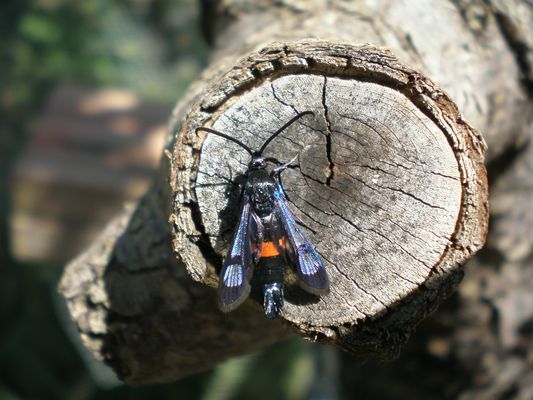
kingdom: Animalia
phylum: Arthropoda
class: Insecta
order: Lepidoptera
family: Sesiidae
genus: Synanthedon
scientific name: Synanthedon myopaeformis
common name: Red-belted clearwing
